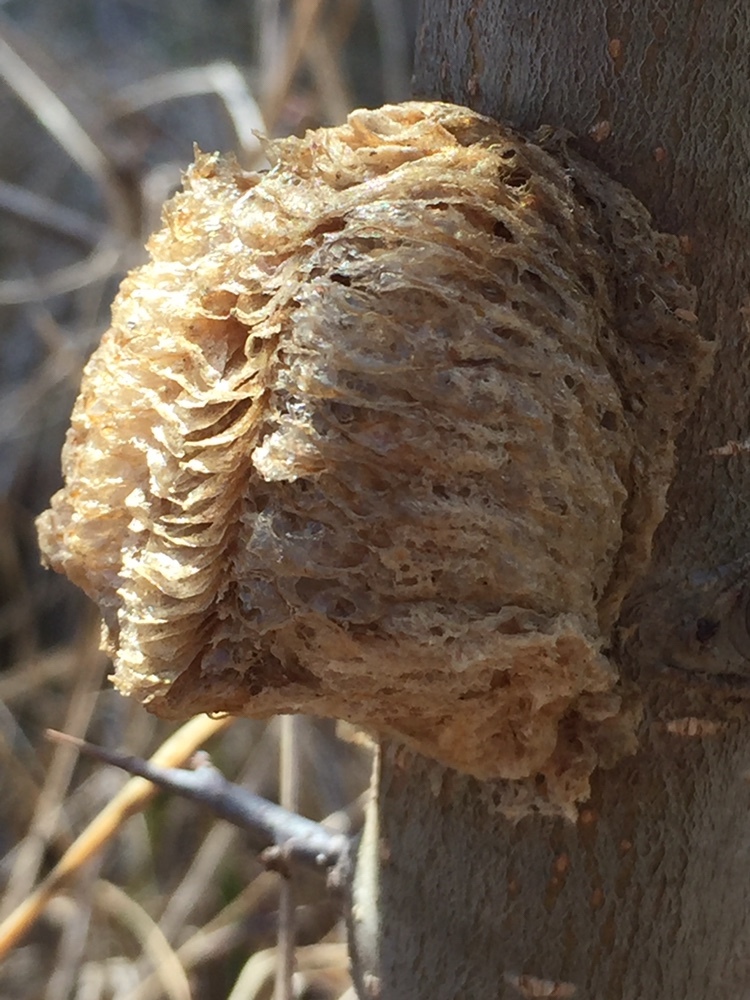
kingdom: Animalia
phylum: Arthropoda
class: Insecta
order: Mantodea
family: Mantidae
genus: Tenodera
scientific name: Tenodera sinensis
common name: Chinese mantis
